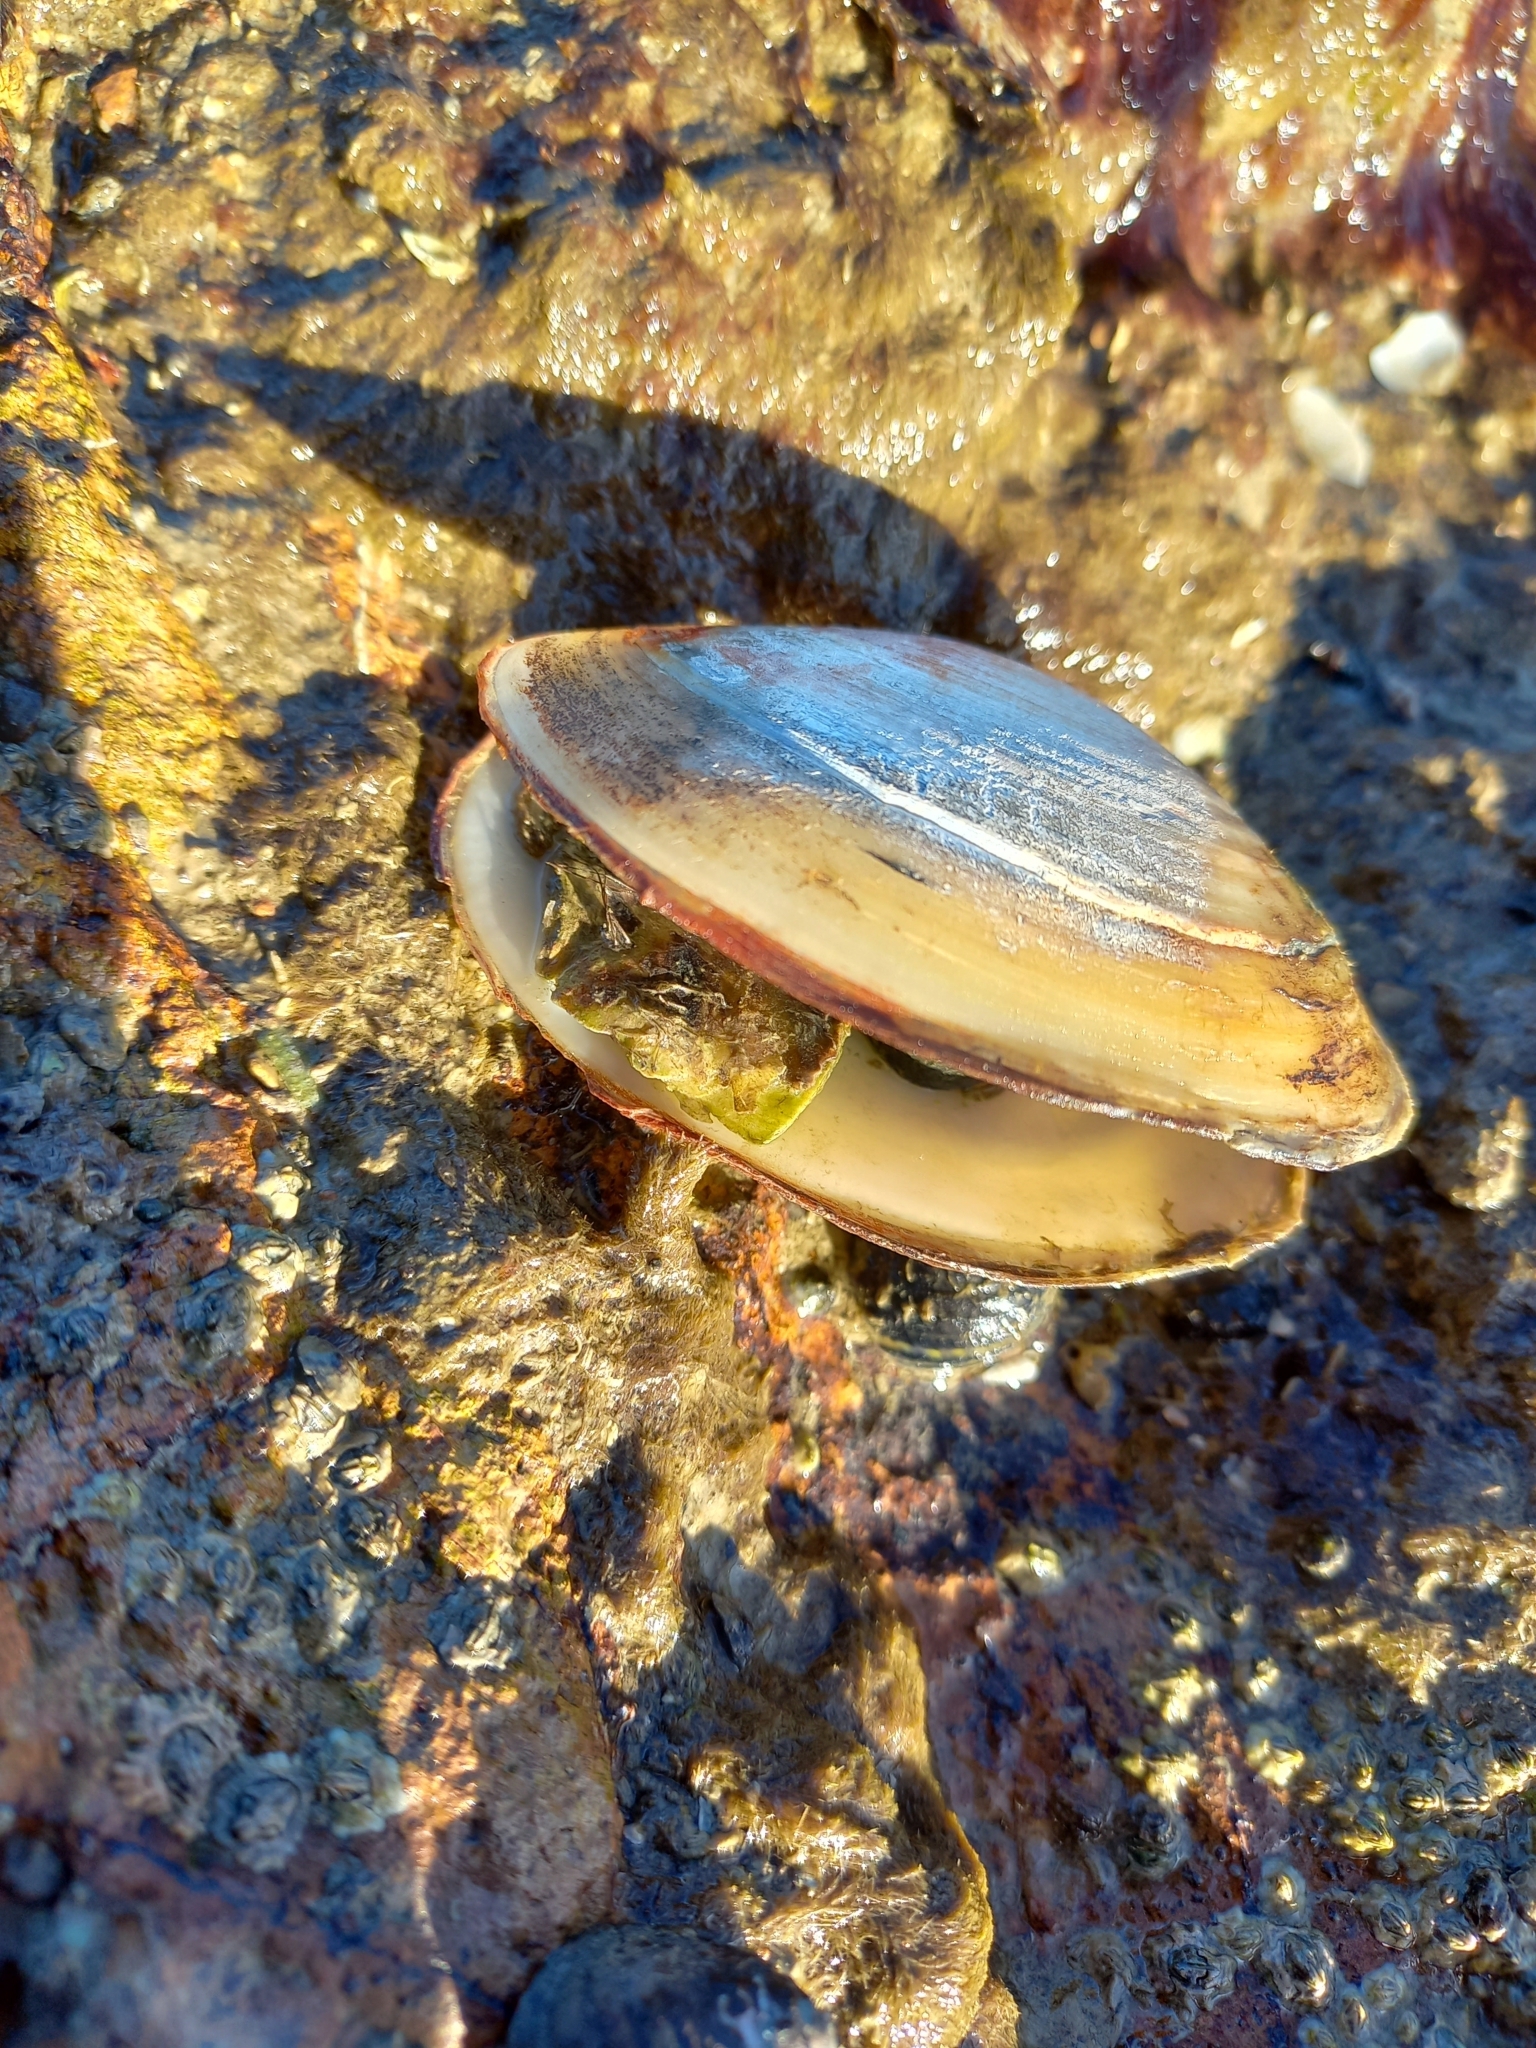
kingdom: Animalia
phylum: Mollusca
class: Bivalvia
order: Venerida
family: Mesodesmatidae
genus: Paphies
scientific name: Paphies australis
